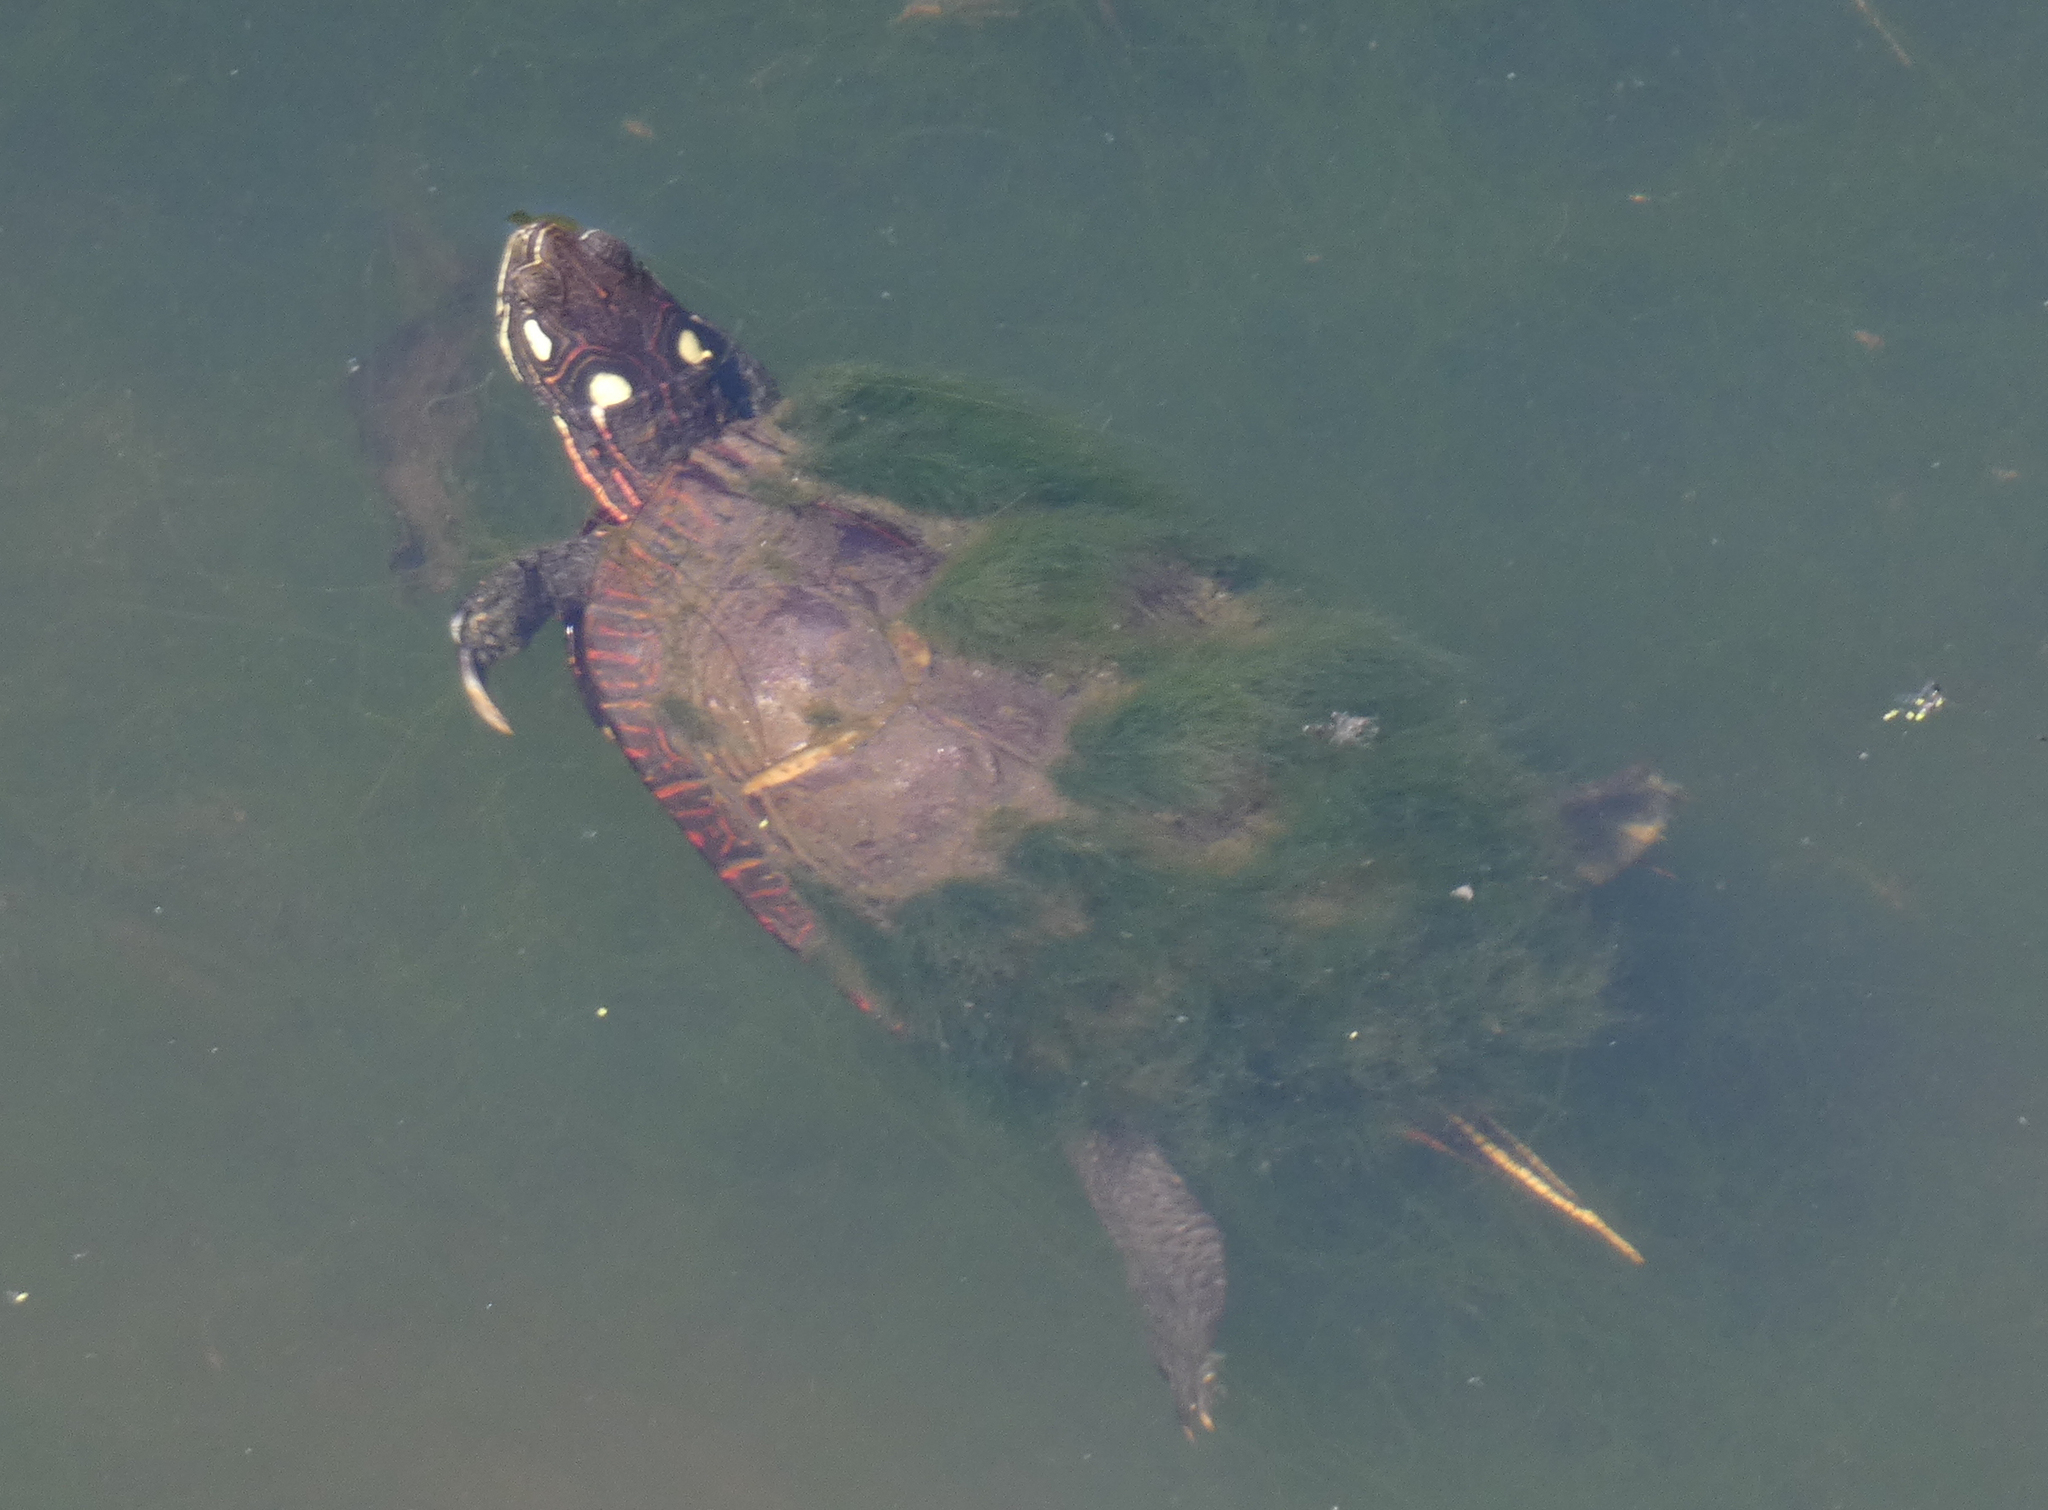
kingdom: Animalia
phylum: Chordata
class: Testudines
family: Emydidae
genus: Chrysemys
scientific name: Chrysemys picta
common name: Painted turtle
